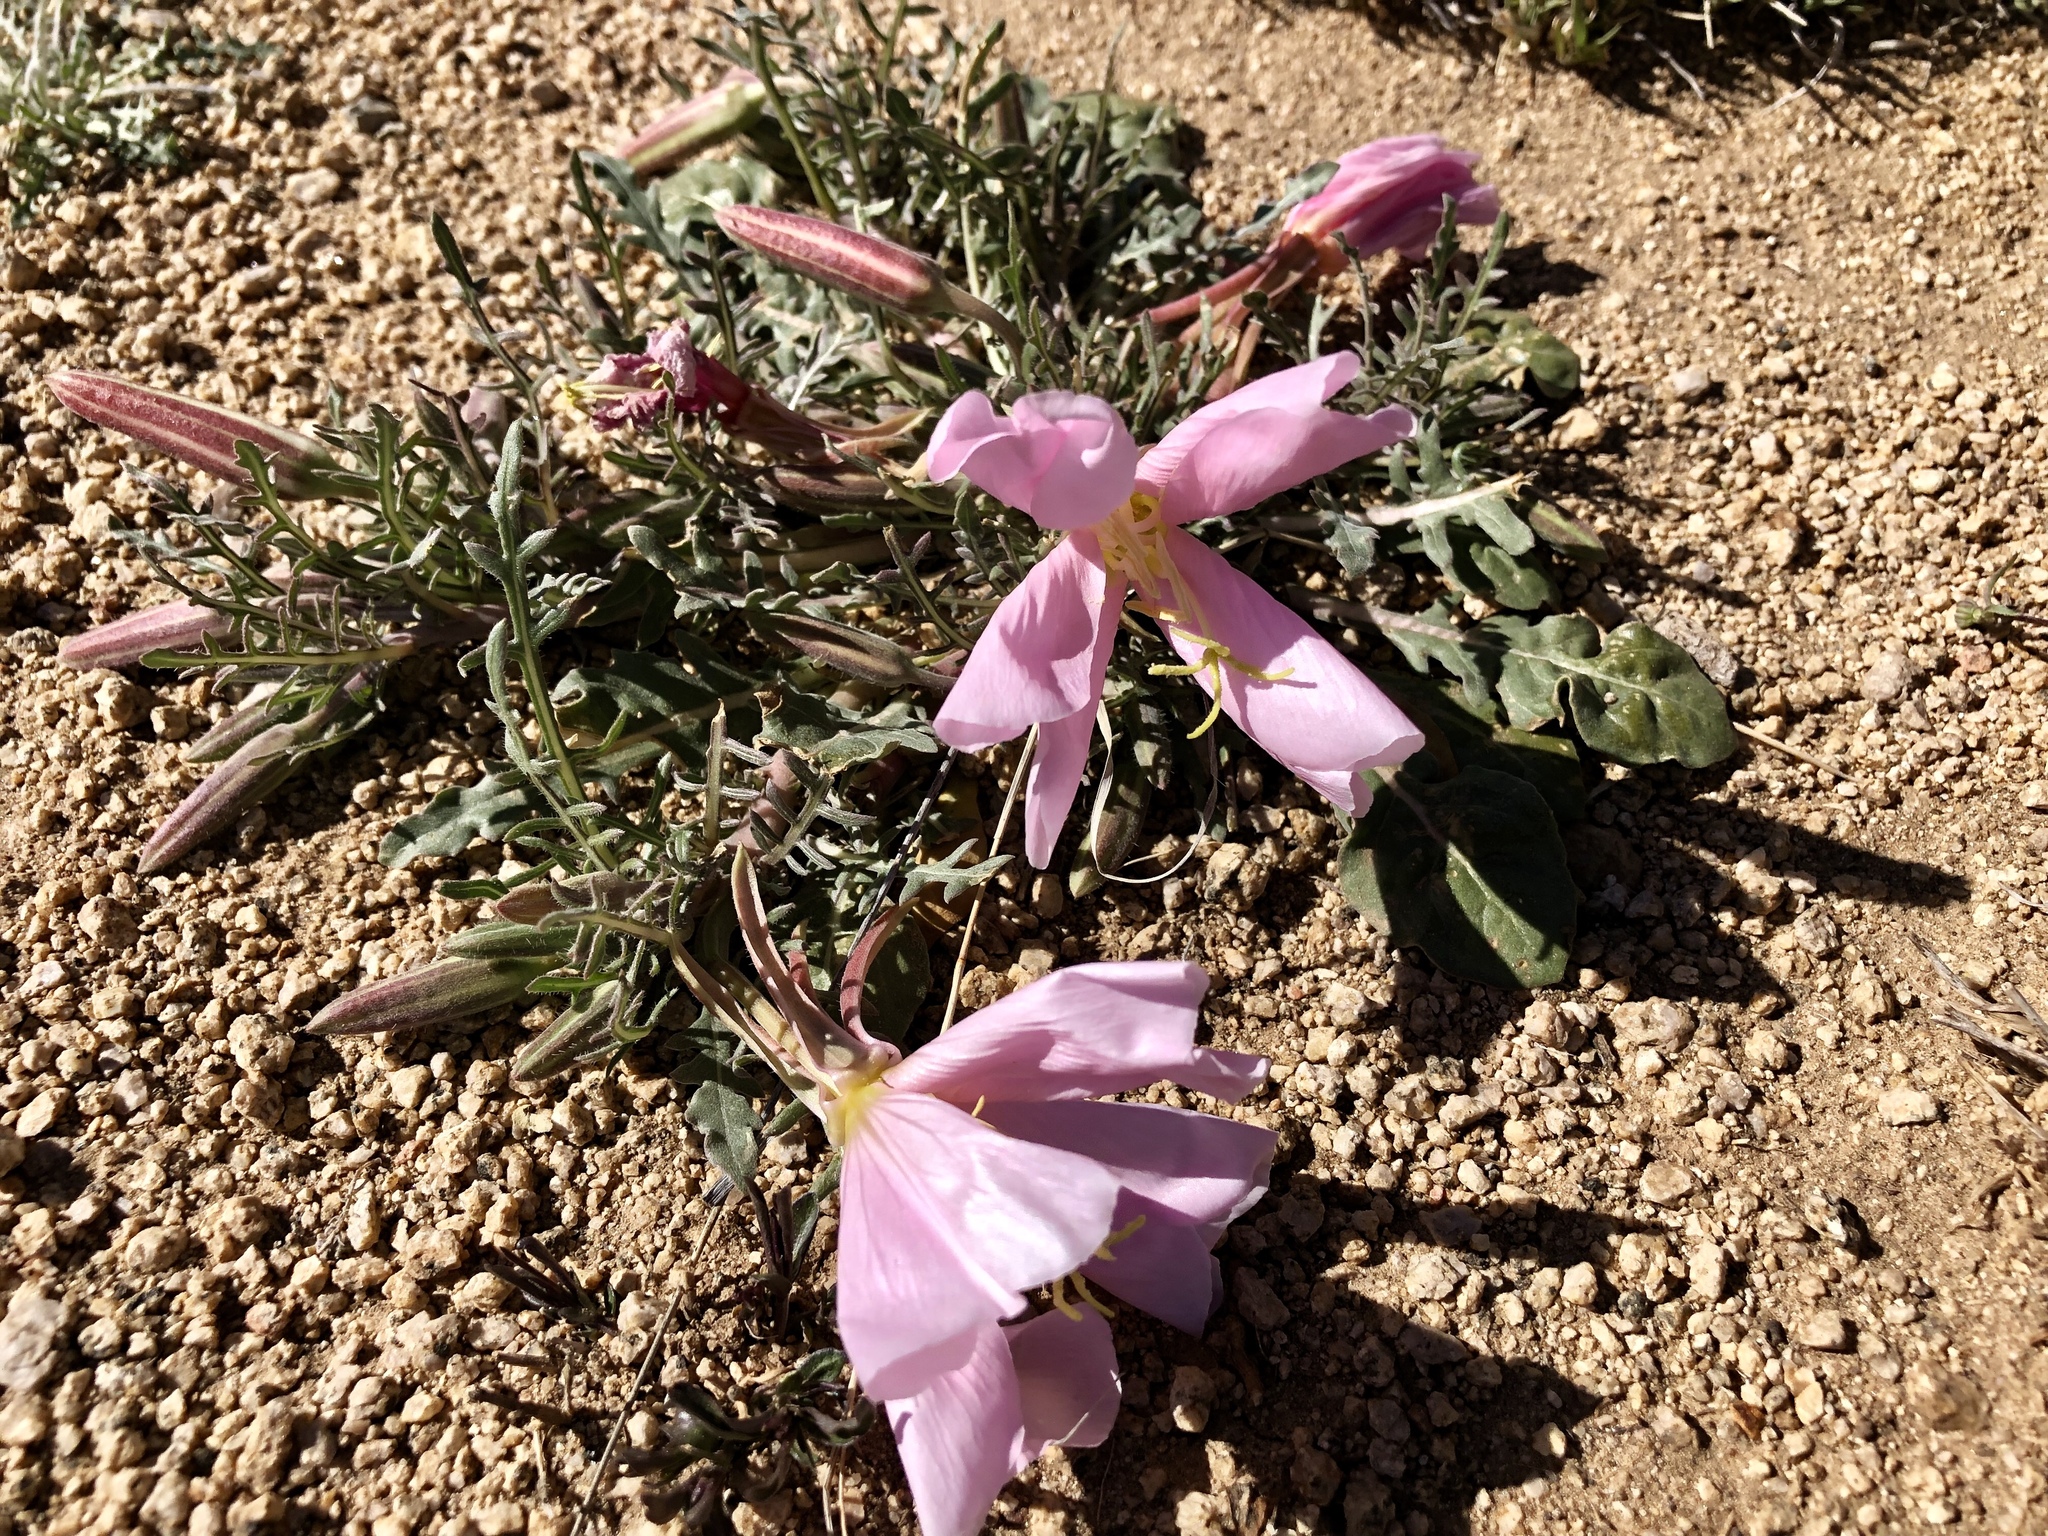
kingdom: Plantae
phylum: Tracheophyta
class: Magnoliopsida
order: Myrtales
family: Onagraceae
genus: Oenothera
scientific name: Oenothera albicaulis
